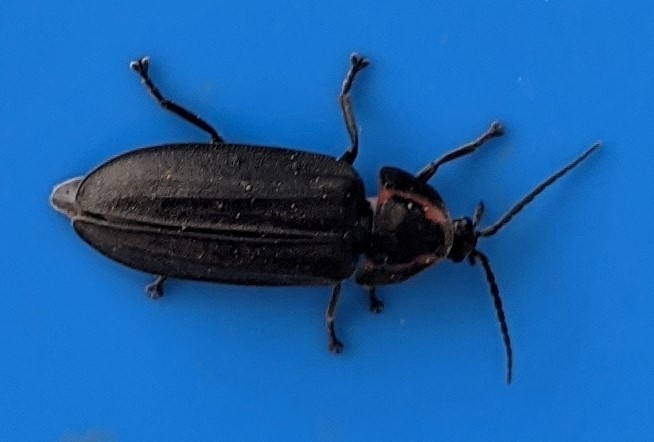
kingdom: Animalia
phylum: Arthropoda
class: Insecta
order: Coleoptera
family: Lampyridae
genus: Photinus
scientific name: Photinus corrusca
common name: Winter firefly
